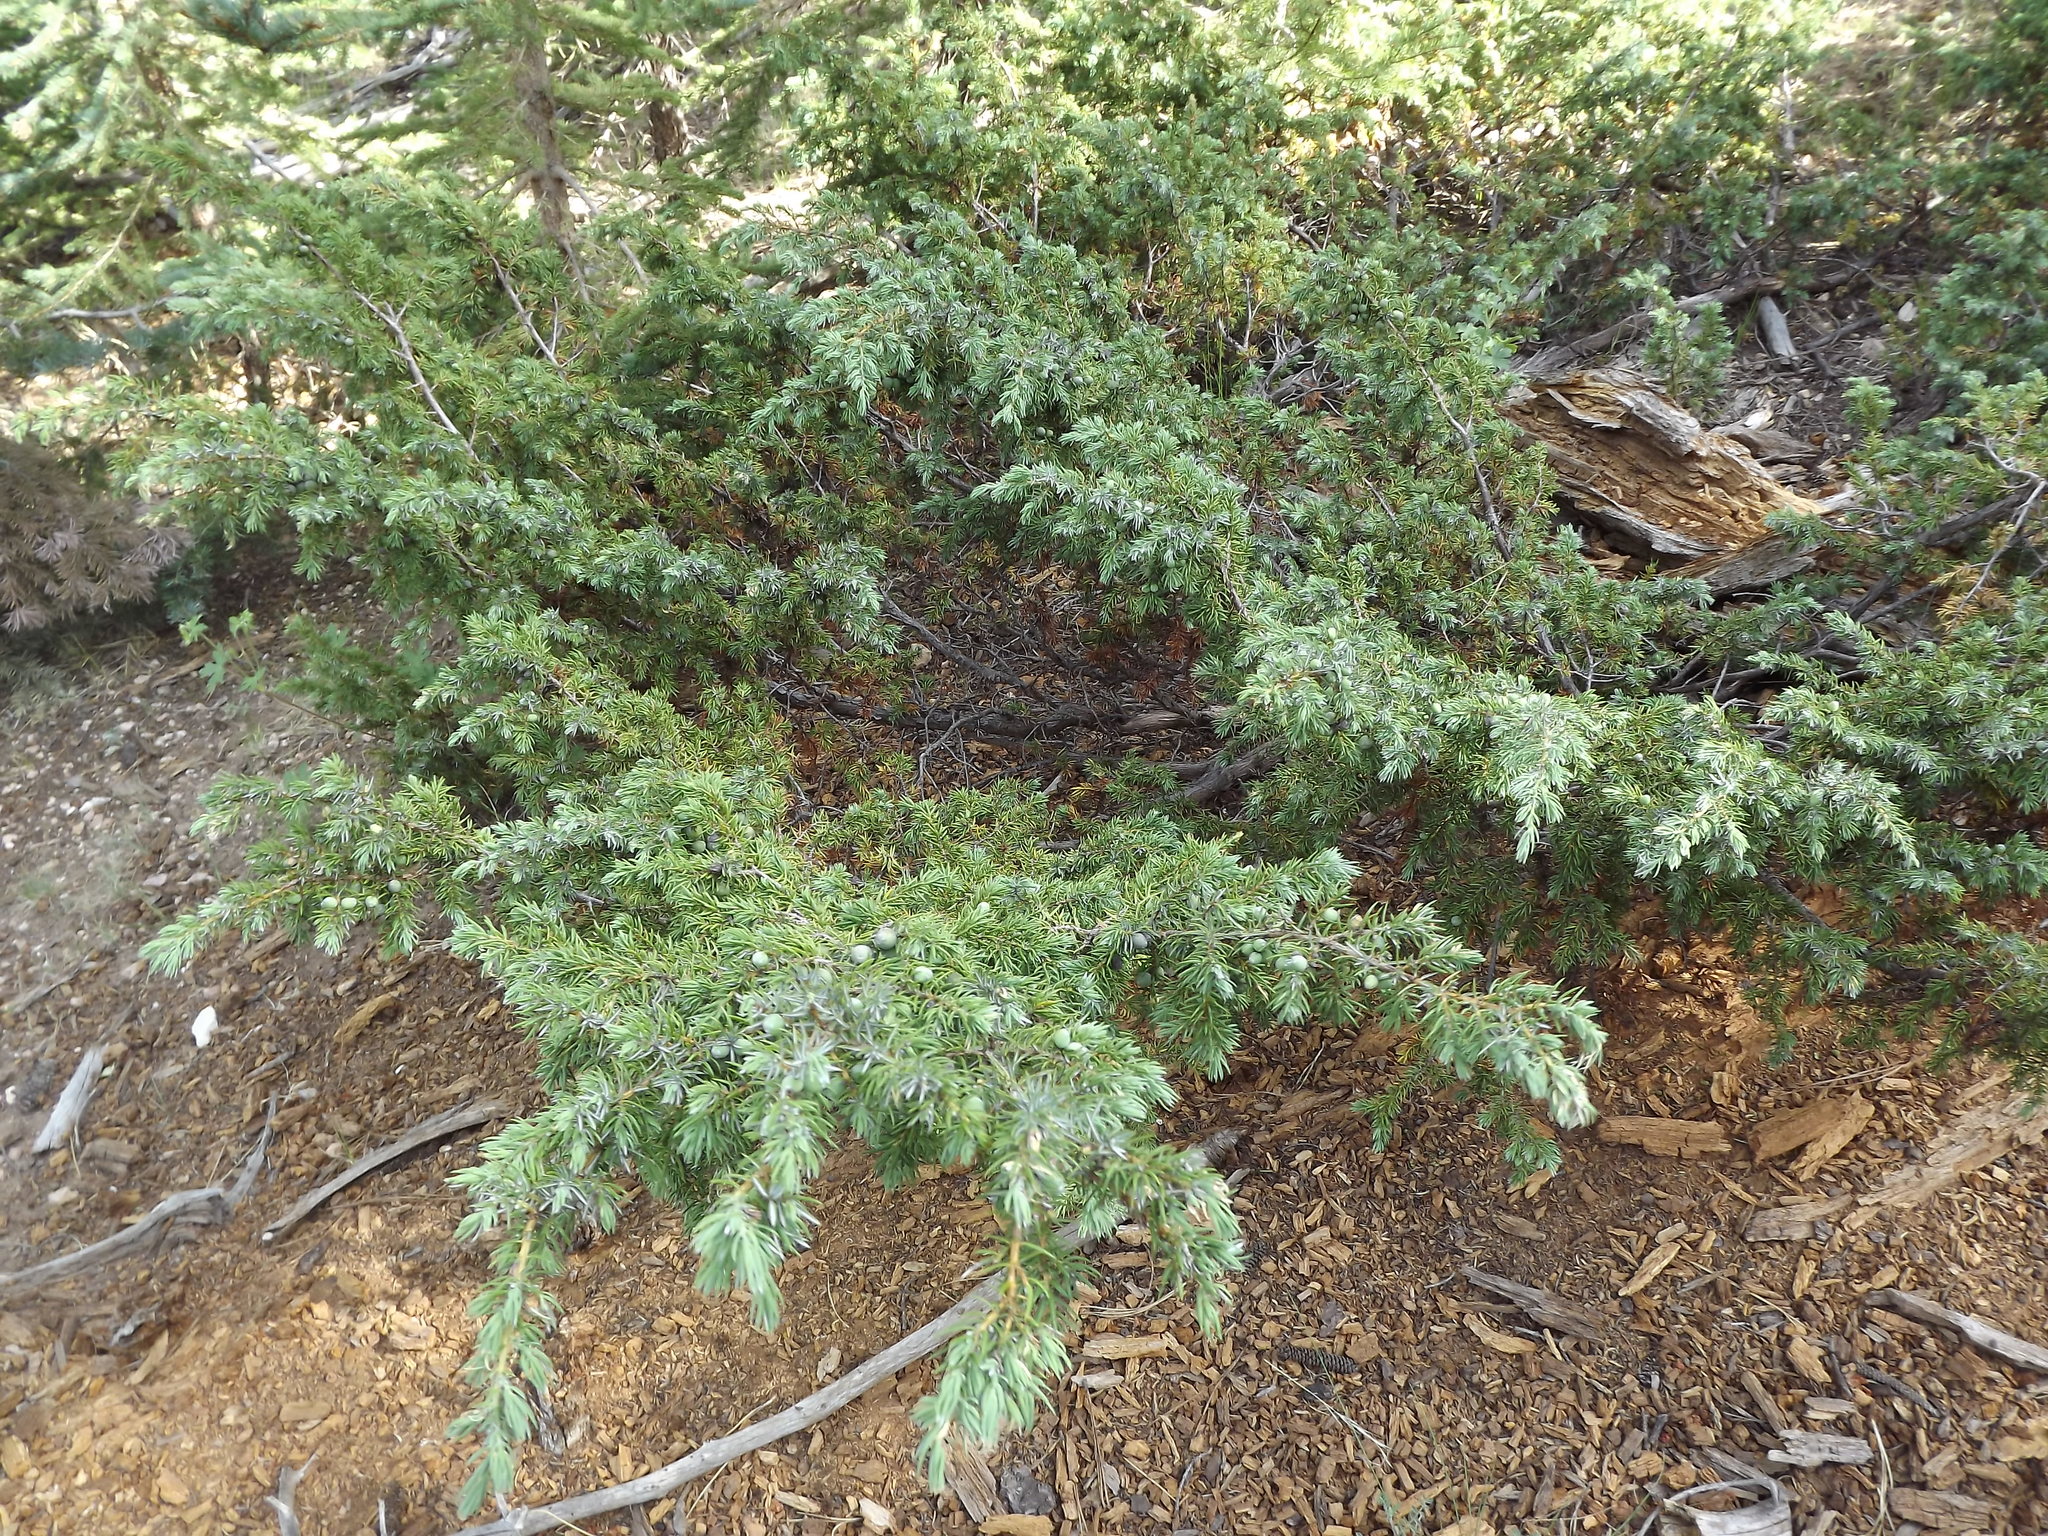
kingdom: Plantae
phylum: Tracheophyta
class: Pinopsida
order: Pinales
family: Cupressaceae
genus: Juniperus
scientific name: Juniperus communis
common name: Common juniper
